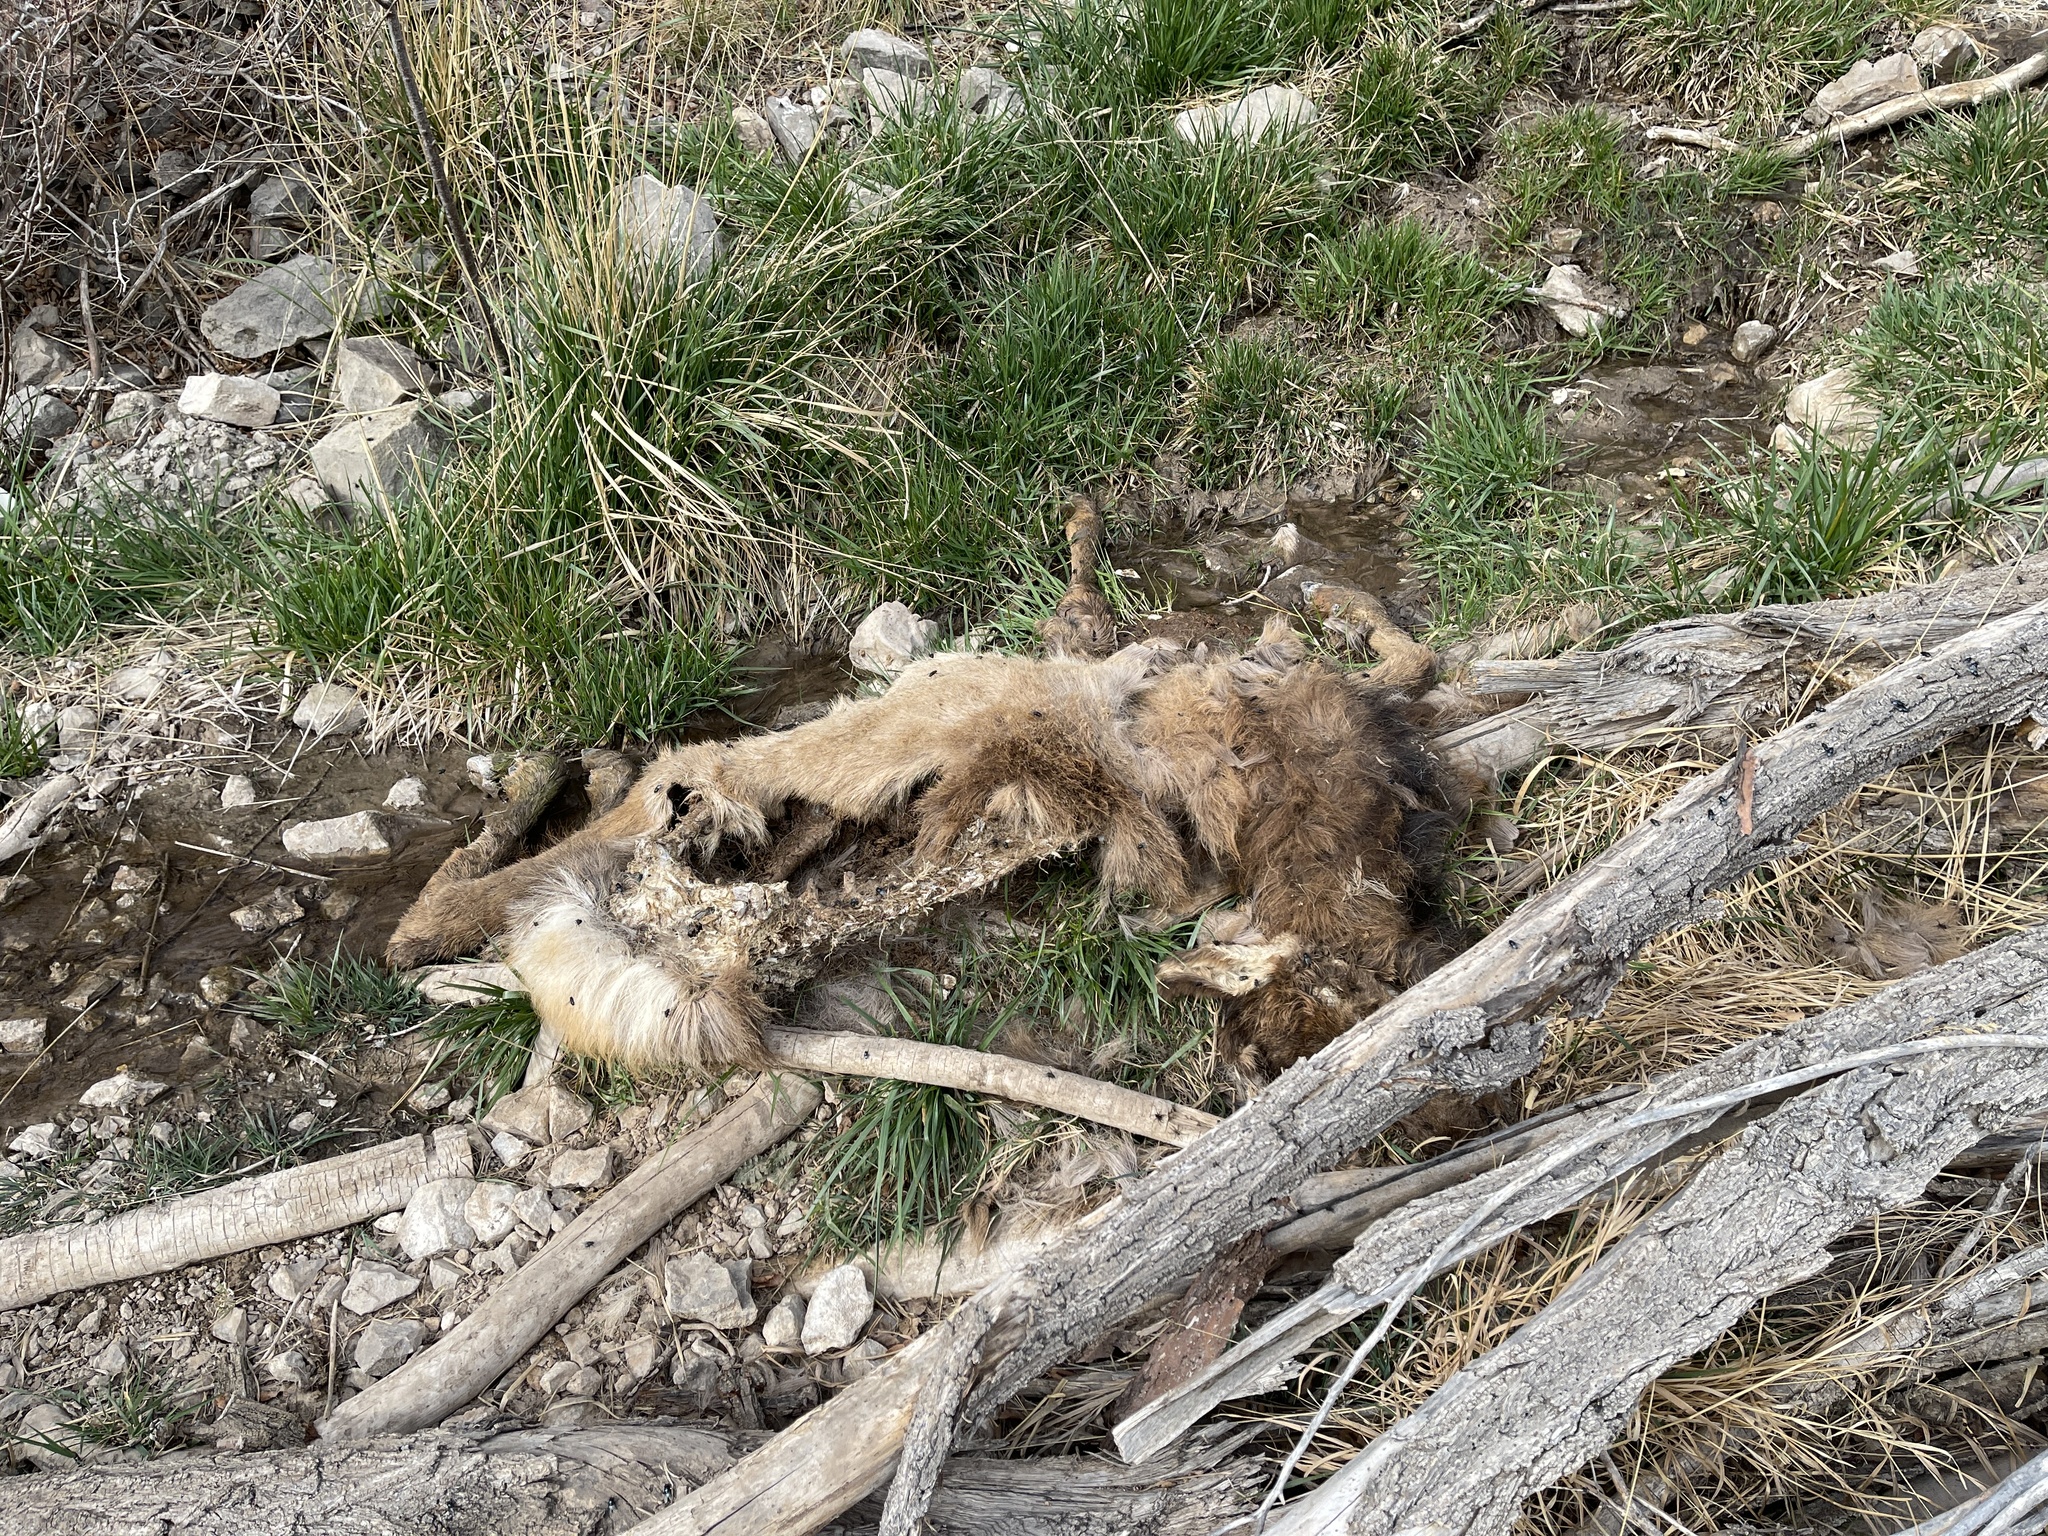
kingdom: Animalia
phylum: Chordata
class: Mammalia
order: Artiodactyla
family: Cervidae
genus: Cervus
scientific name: Cervus elaphus
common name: Red deer
